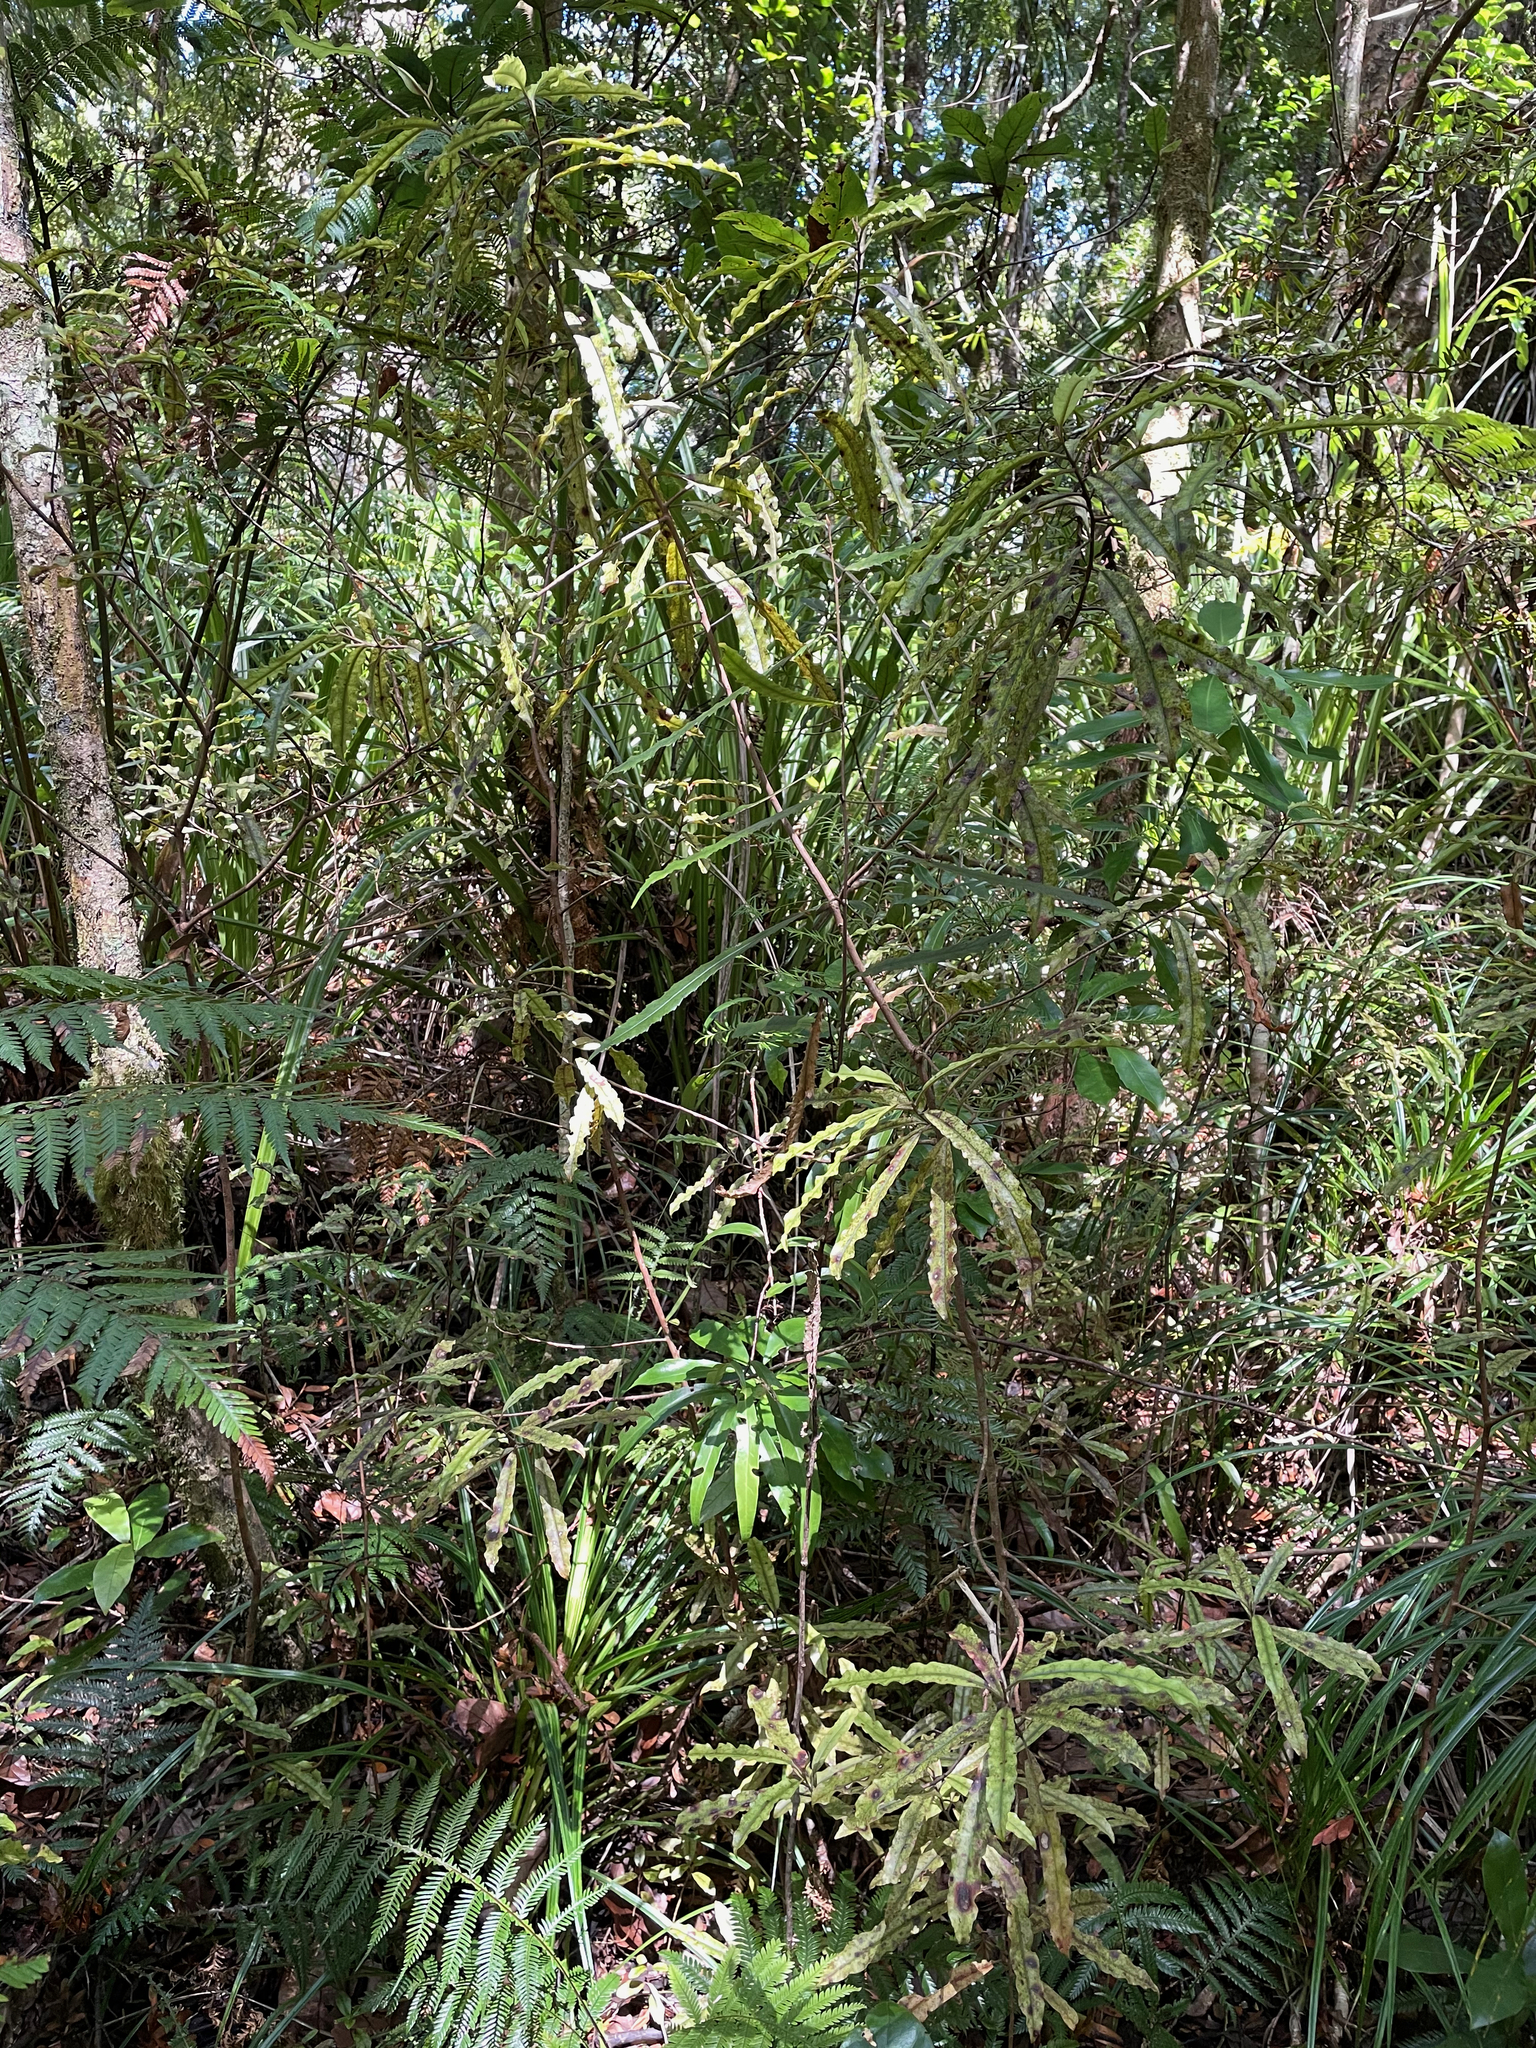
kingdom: Plantae
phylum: Tracheophyta
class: Magnoliopsida
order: Paracryphiales
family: Paracryphiaceae
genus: Quintinia
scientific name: Quintinia serrata
